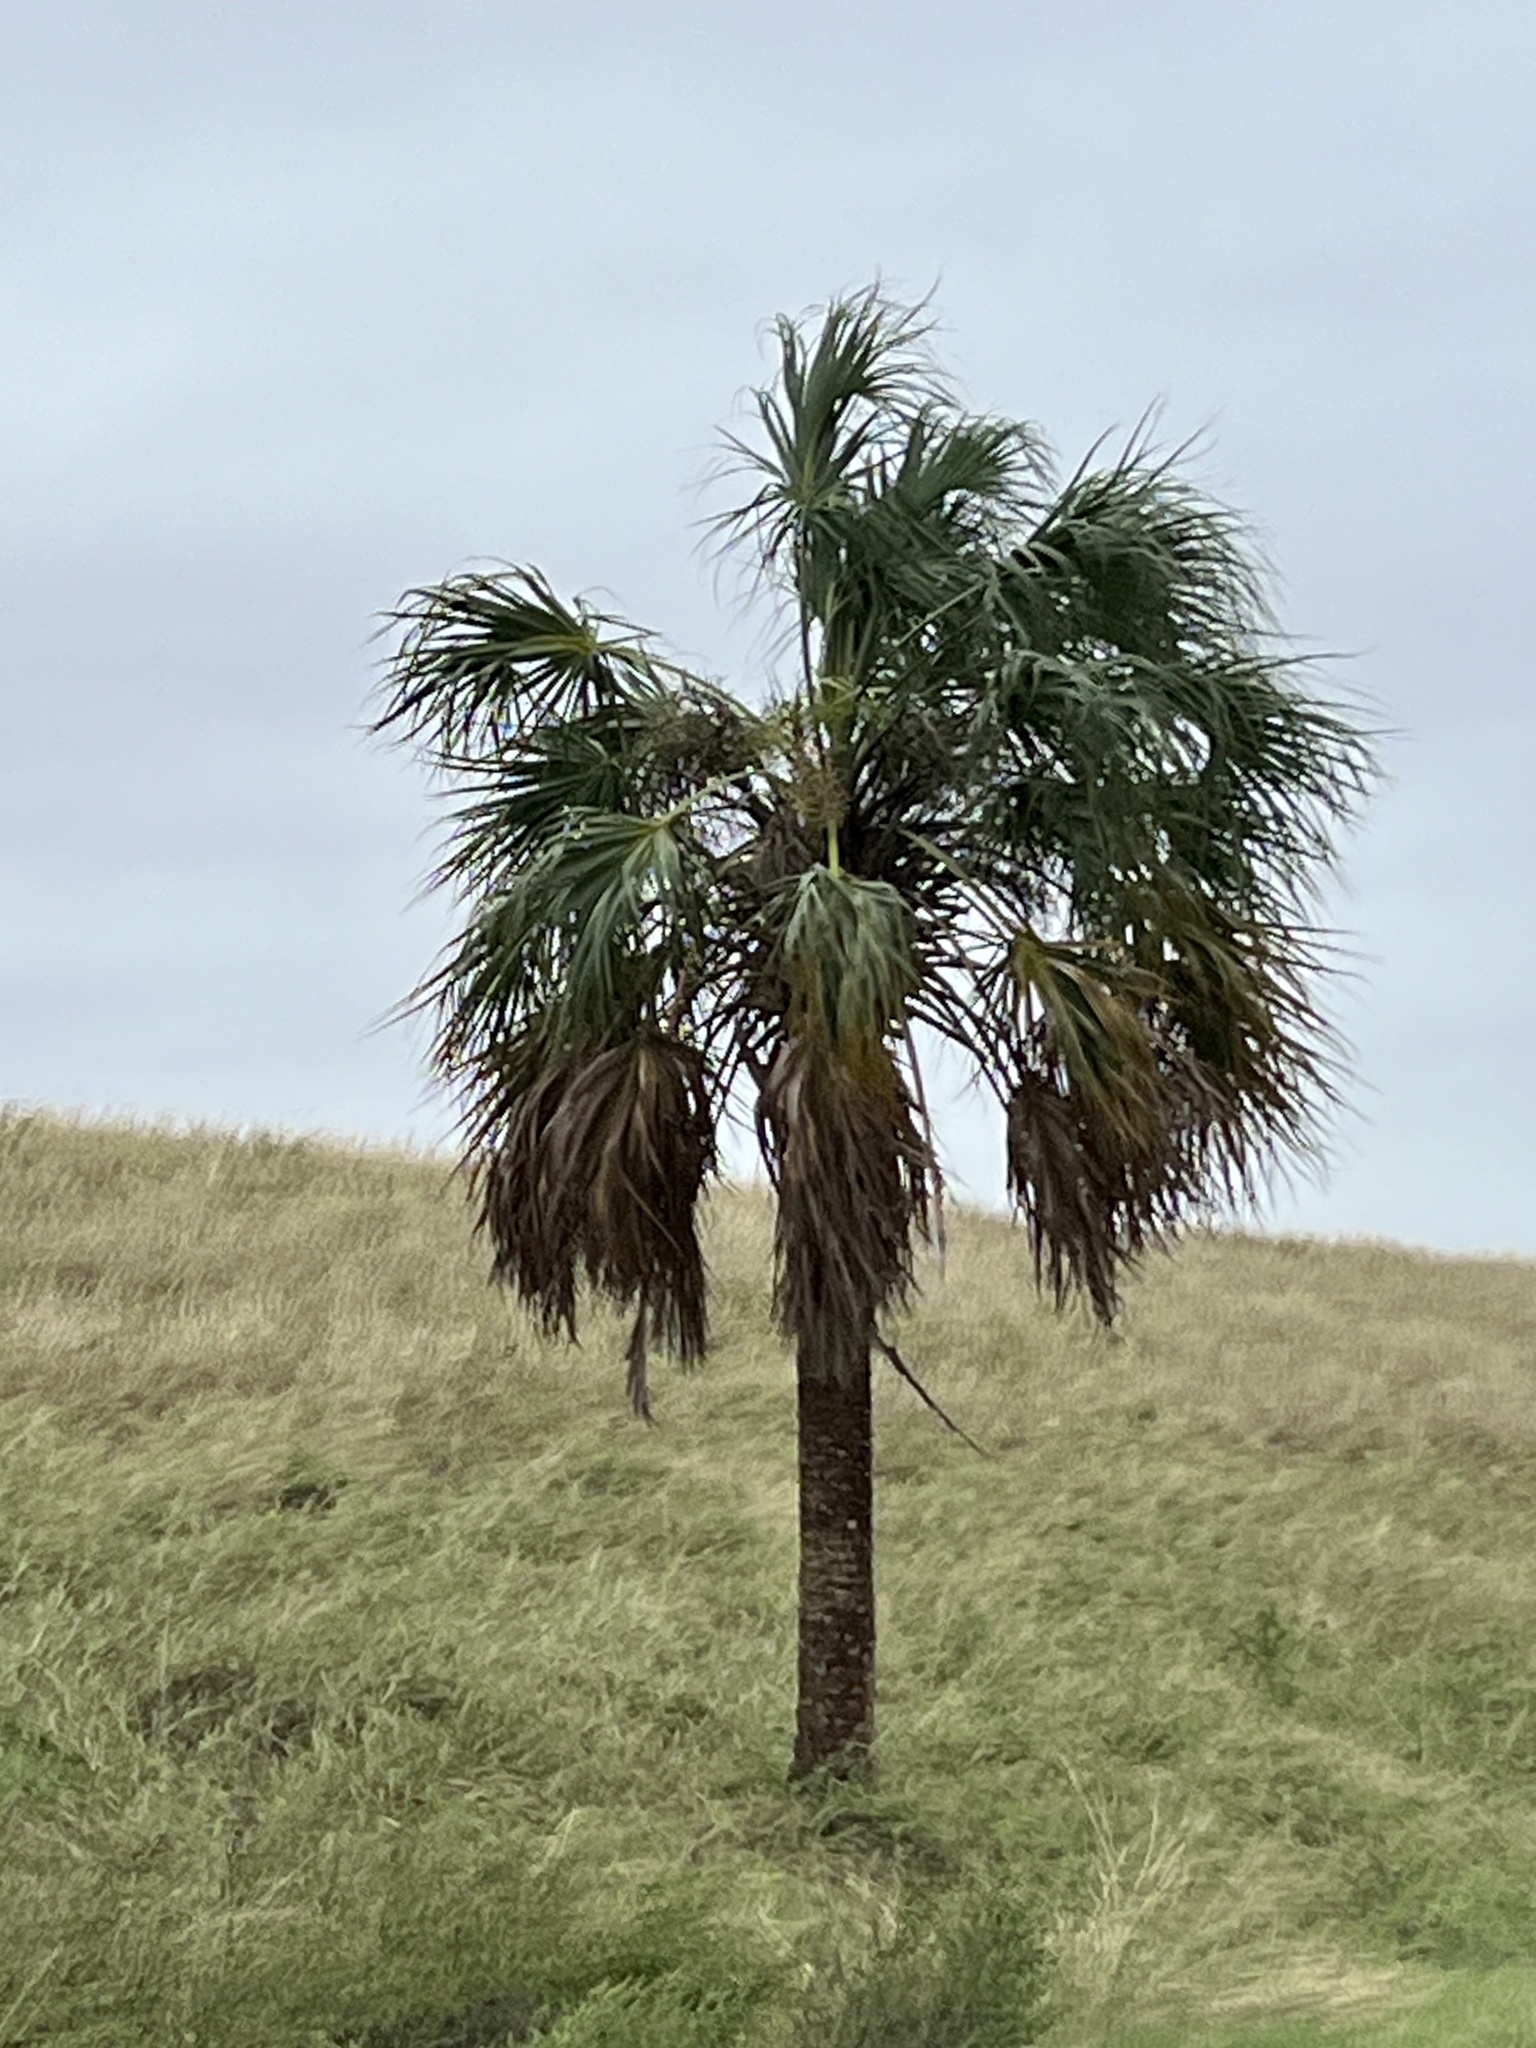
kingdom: Plantae
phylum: Tracheophyta
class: Liliopsida
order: Arecales
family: Arecaceae
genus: Sabal
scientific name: Sabal mexicana
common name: Texas palmetto
